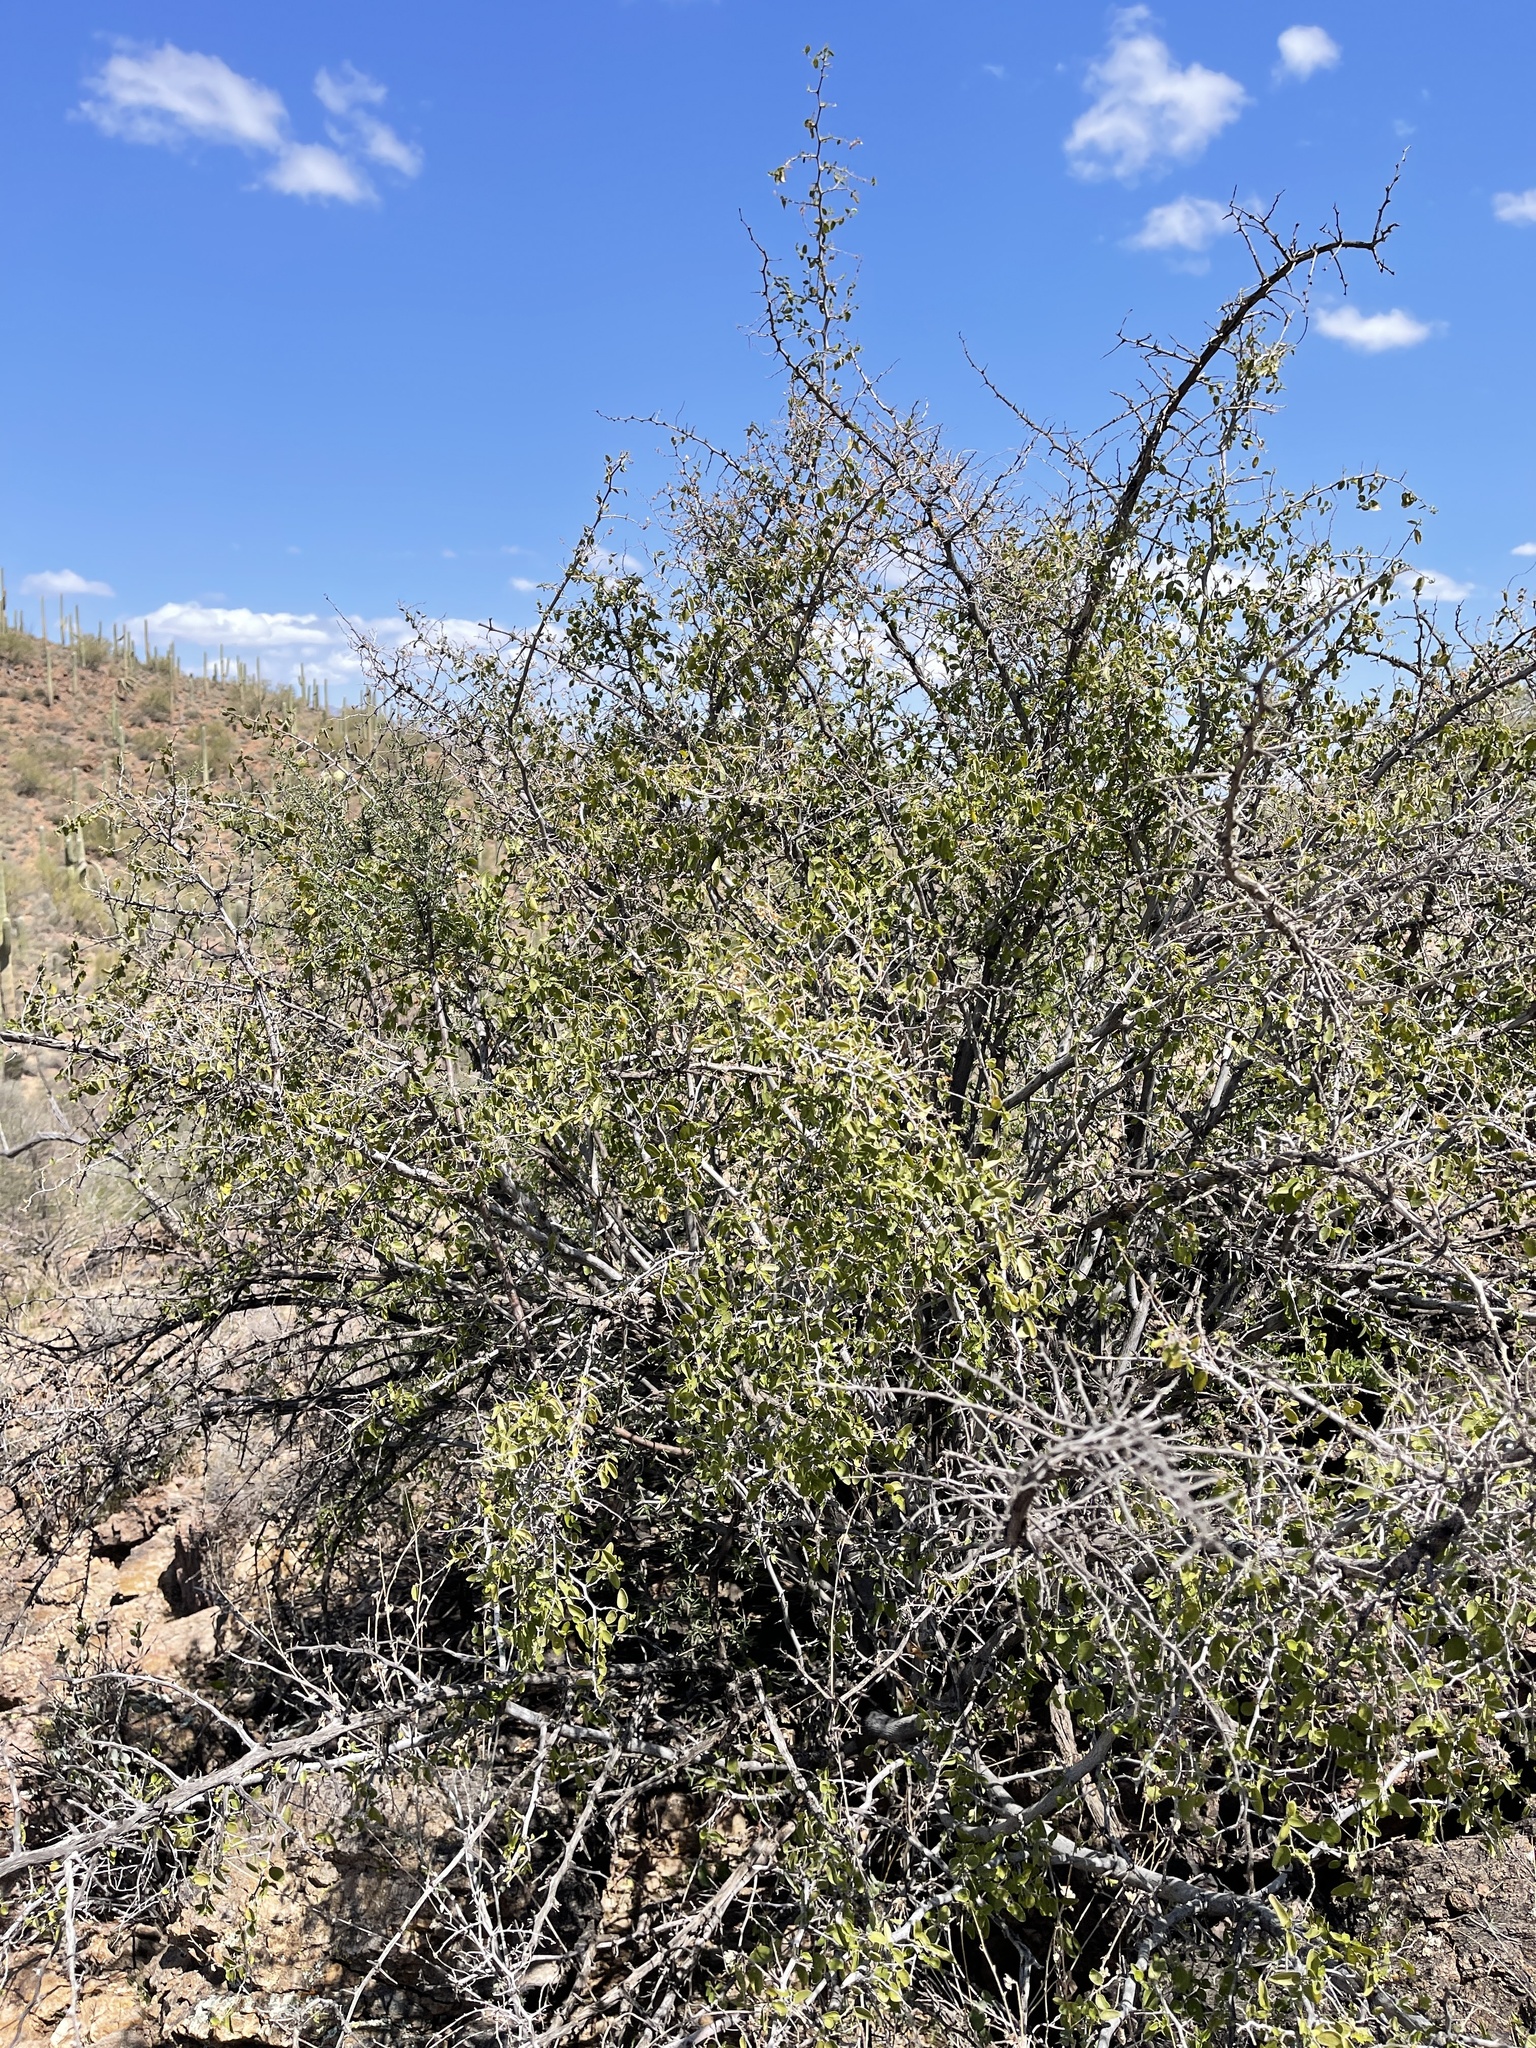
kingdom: Plantae
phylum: Tracheophyta
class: Magnoliopsida
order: Rosales
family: Cannabaceae
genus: Celtis
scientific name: Celtis pallida
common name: Desert hackberry
